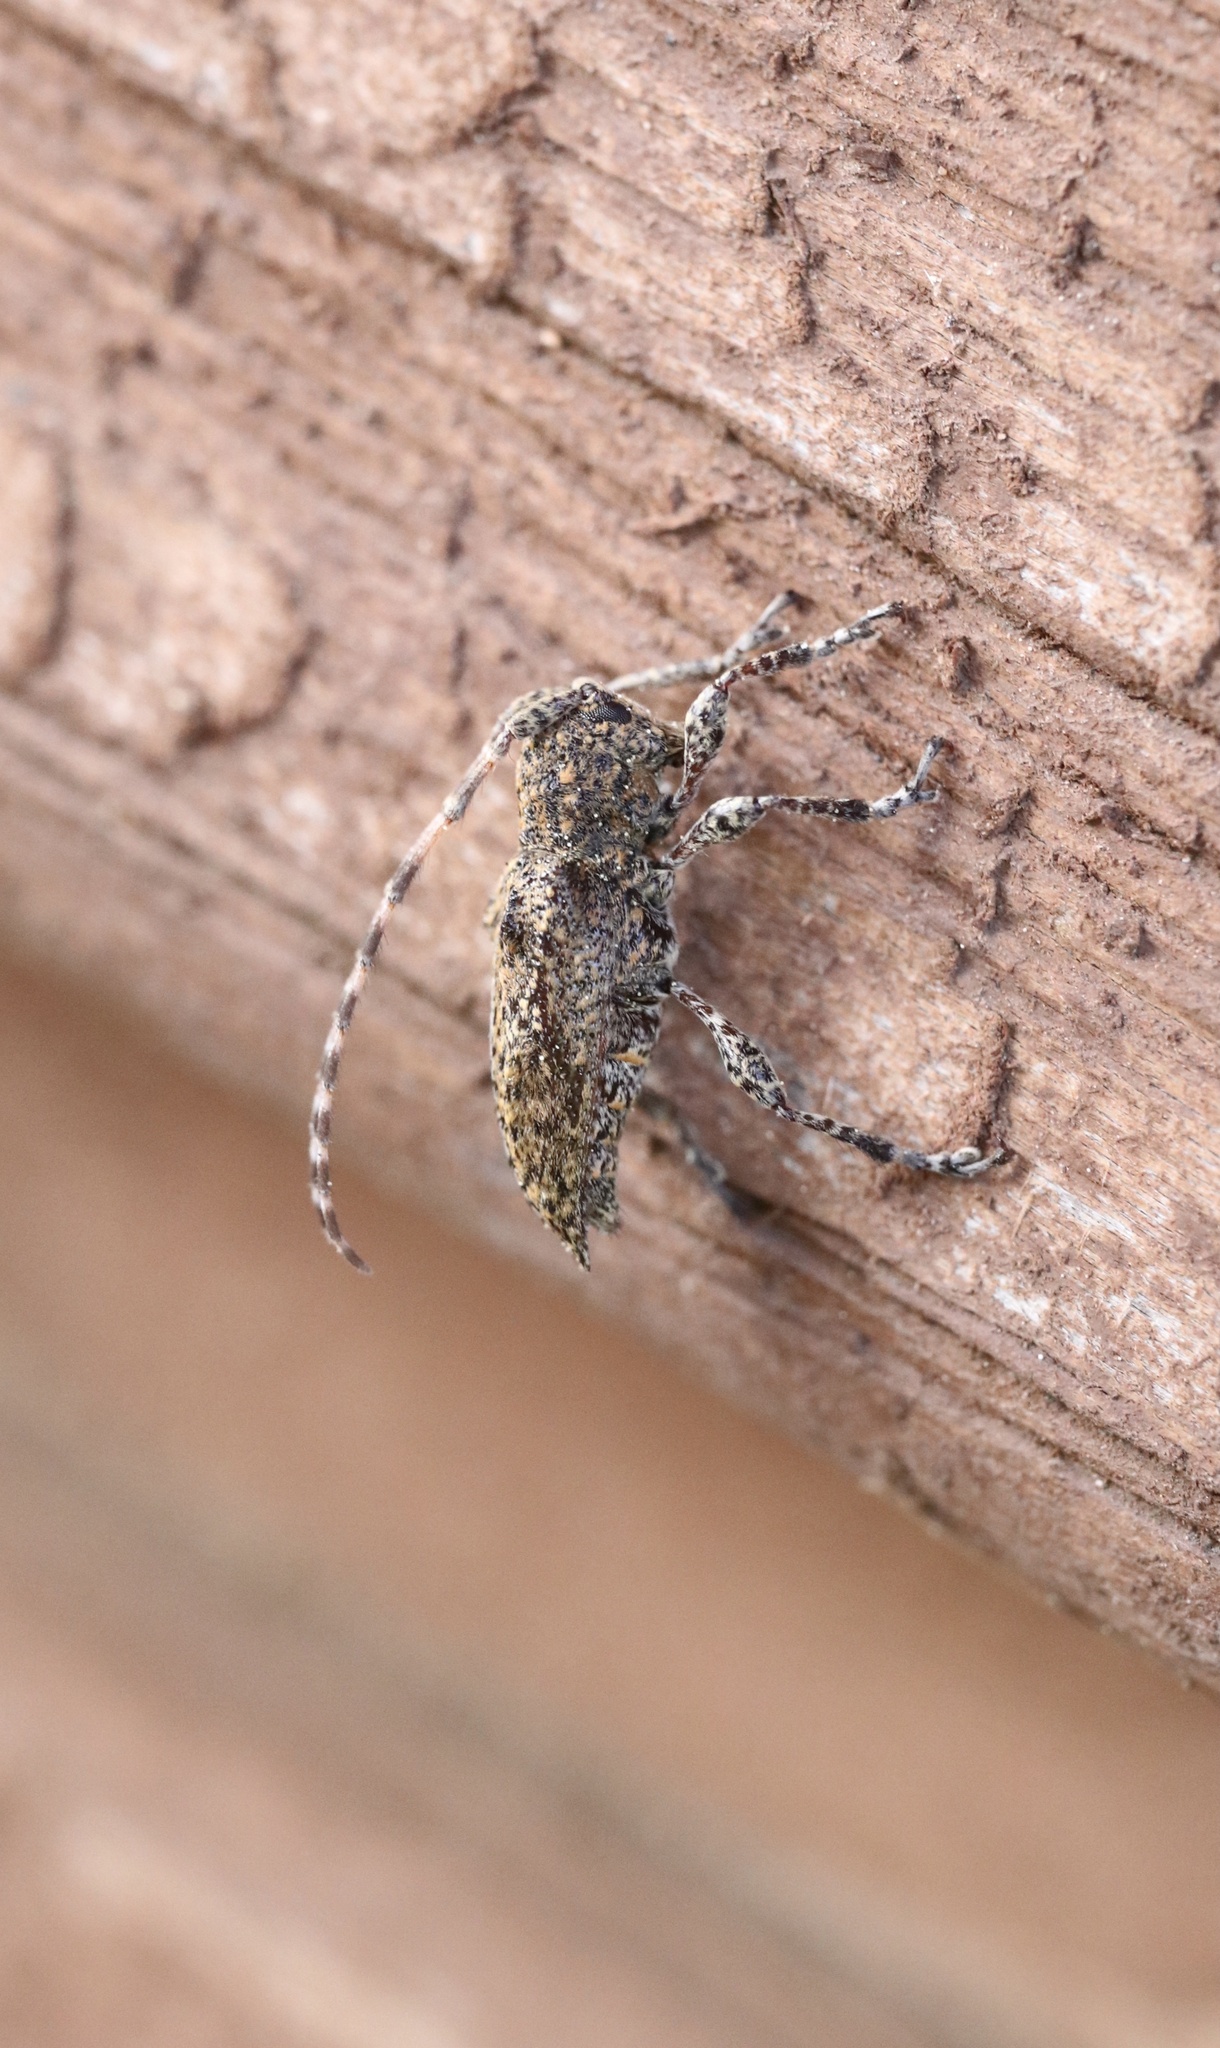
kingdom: Animalia
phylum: Arthropoda
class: Insecta
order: Coleoptera
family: Cerambycidae
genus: Aconopterus
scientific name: Aconopterus cristatipennis
